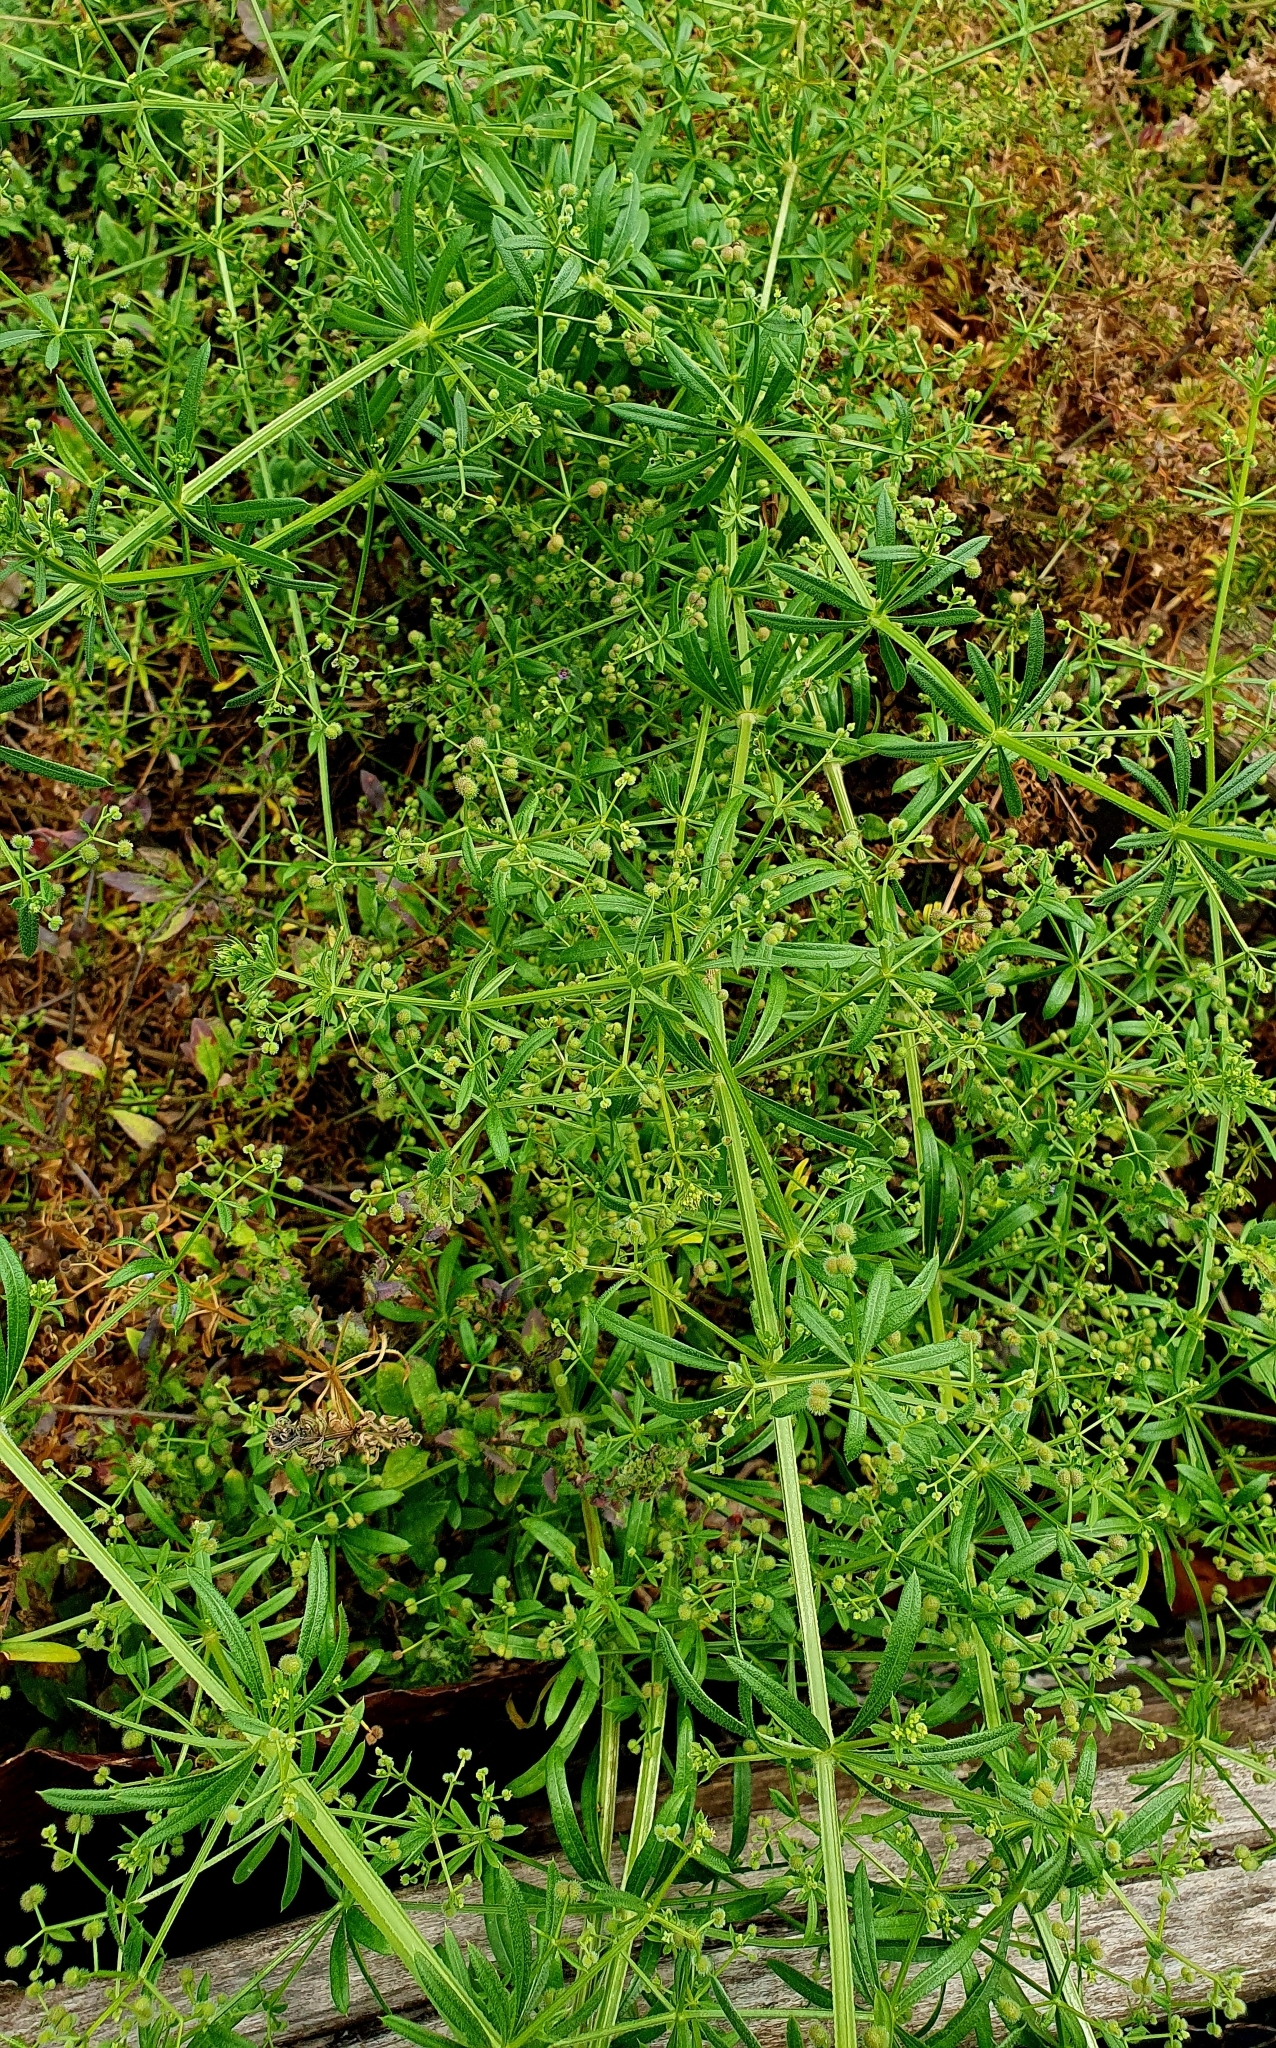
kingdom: Plantae
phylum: Tracheophyta
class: Magnoliopsida
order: Gentianales
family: Rubiaceae
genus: Galium
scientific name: Galium
